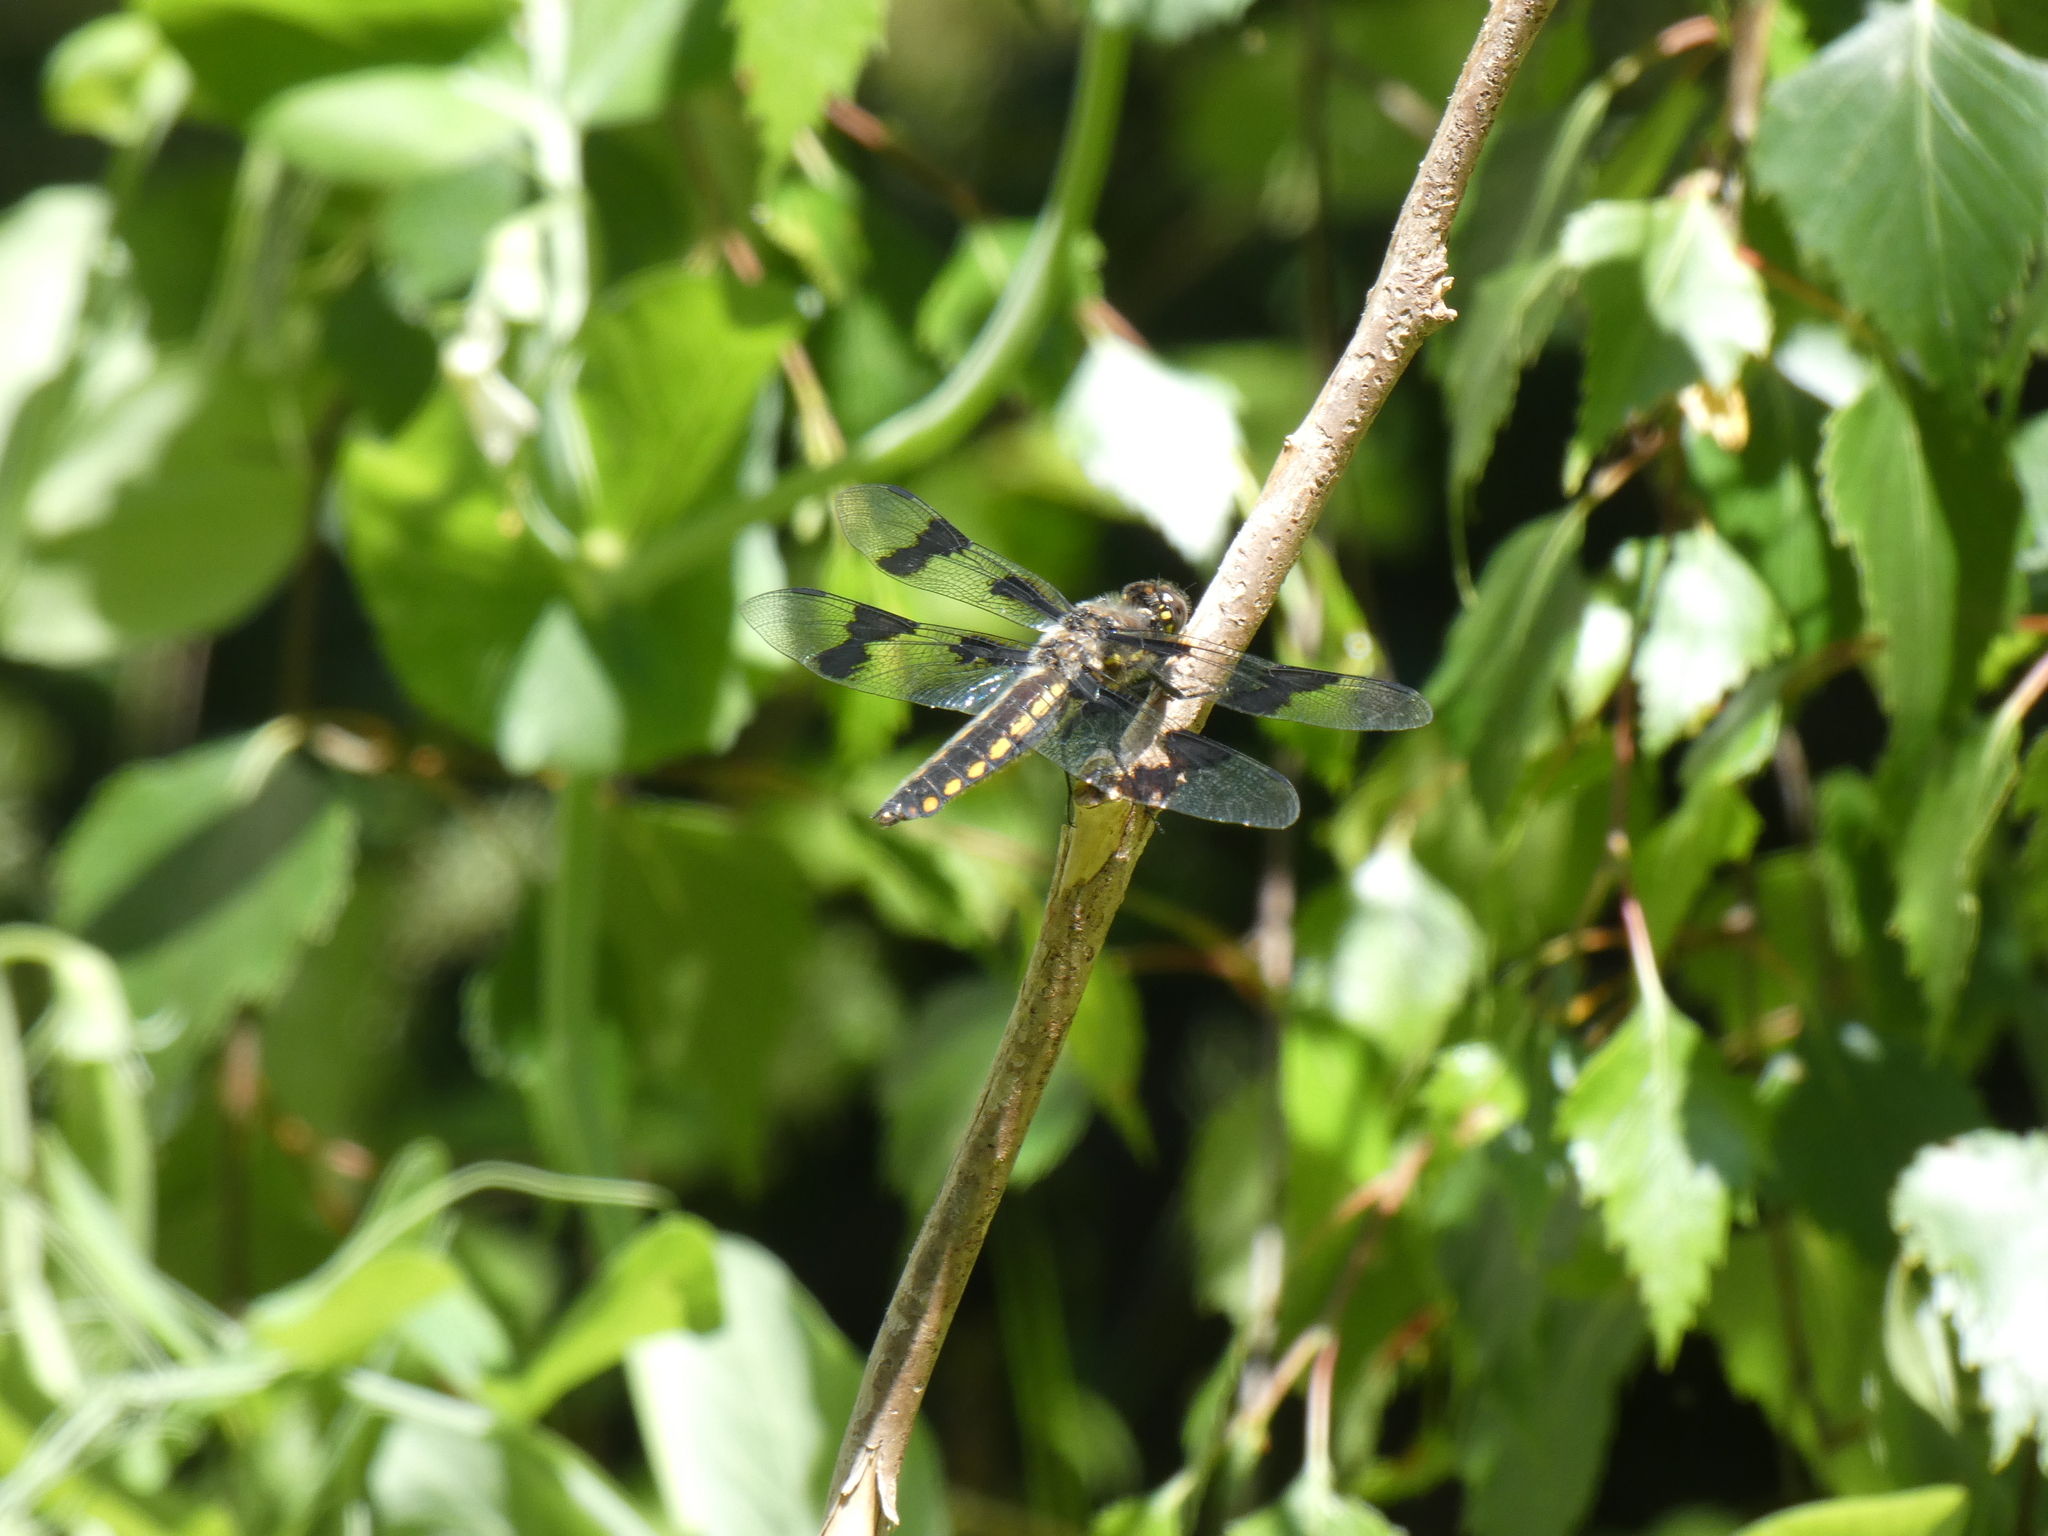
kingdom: Animalia
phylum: Arthropoda
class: Insecta
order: Odonata
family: Libellulidae
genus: Libellula
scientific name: Libellula forensis
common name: Eight-spotted skimmer
